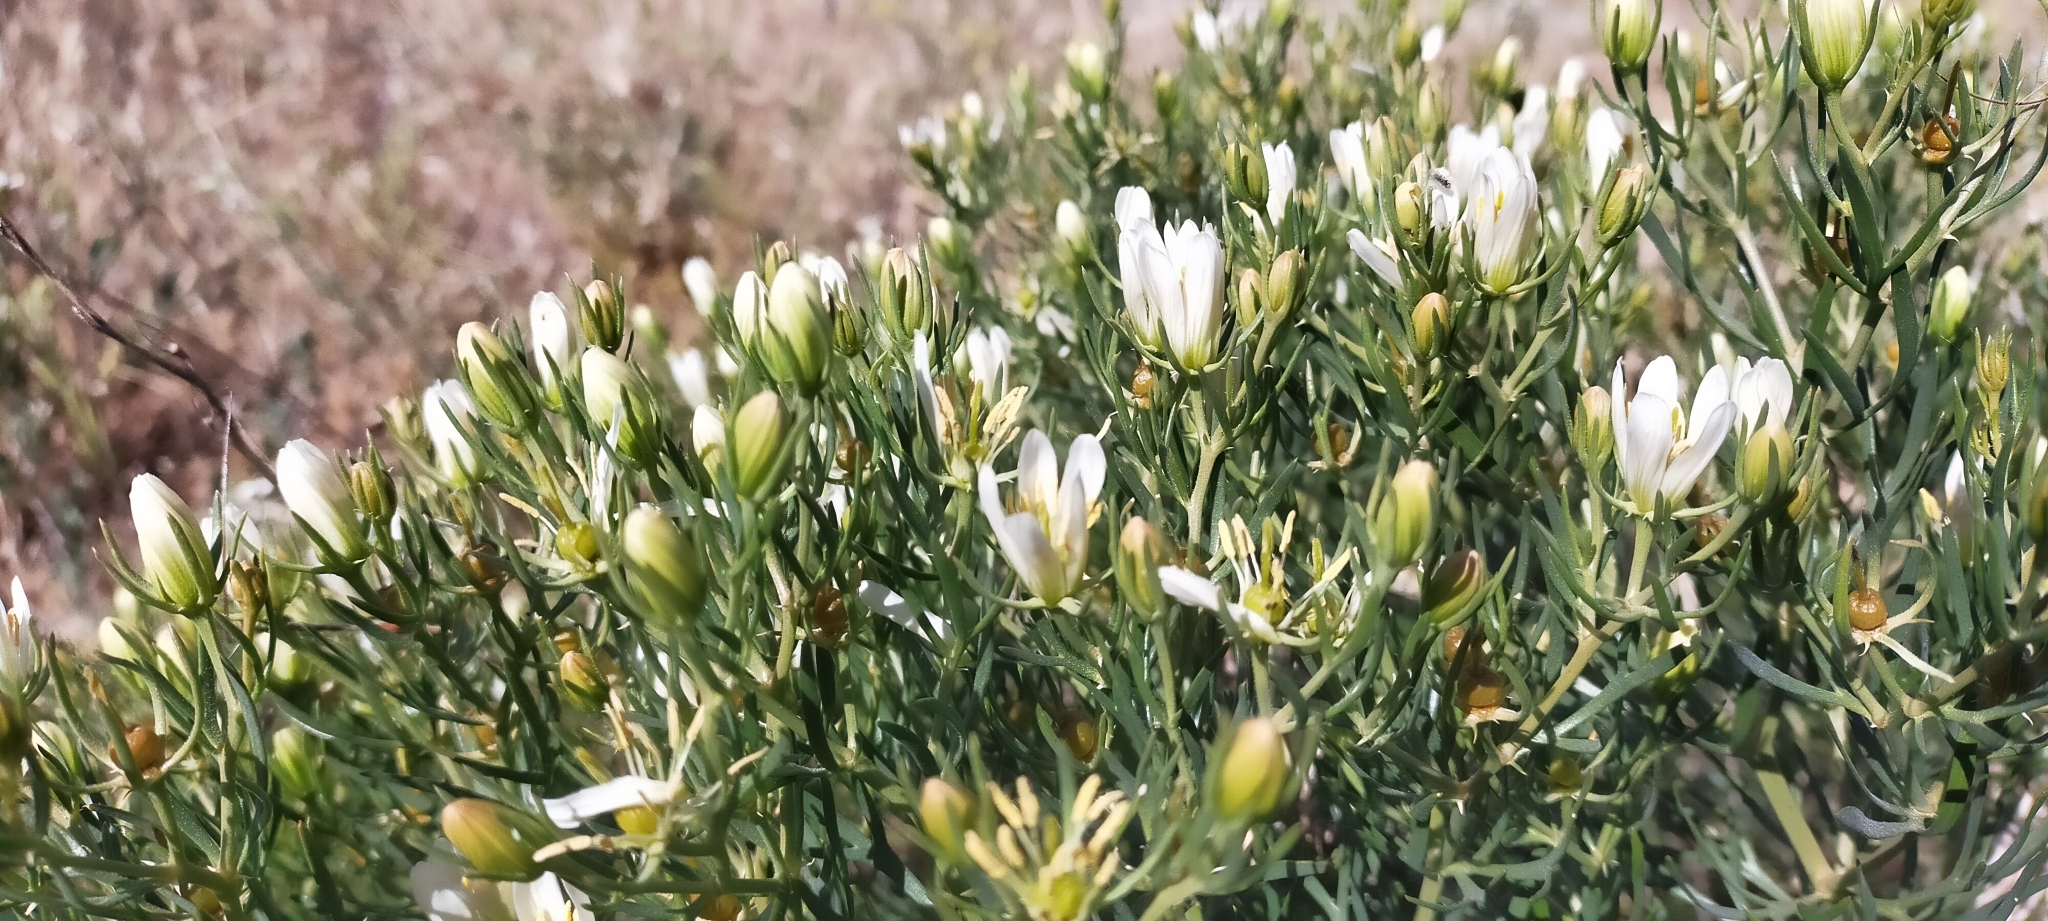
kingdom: Plantae
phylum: Tracheophyta
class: Magnoliopsida
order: Sapindales
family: Tetradiclidaceae
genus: Peganum
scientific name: Peganum harmala
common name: Harmal peganum
